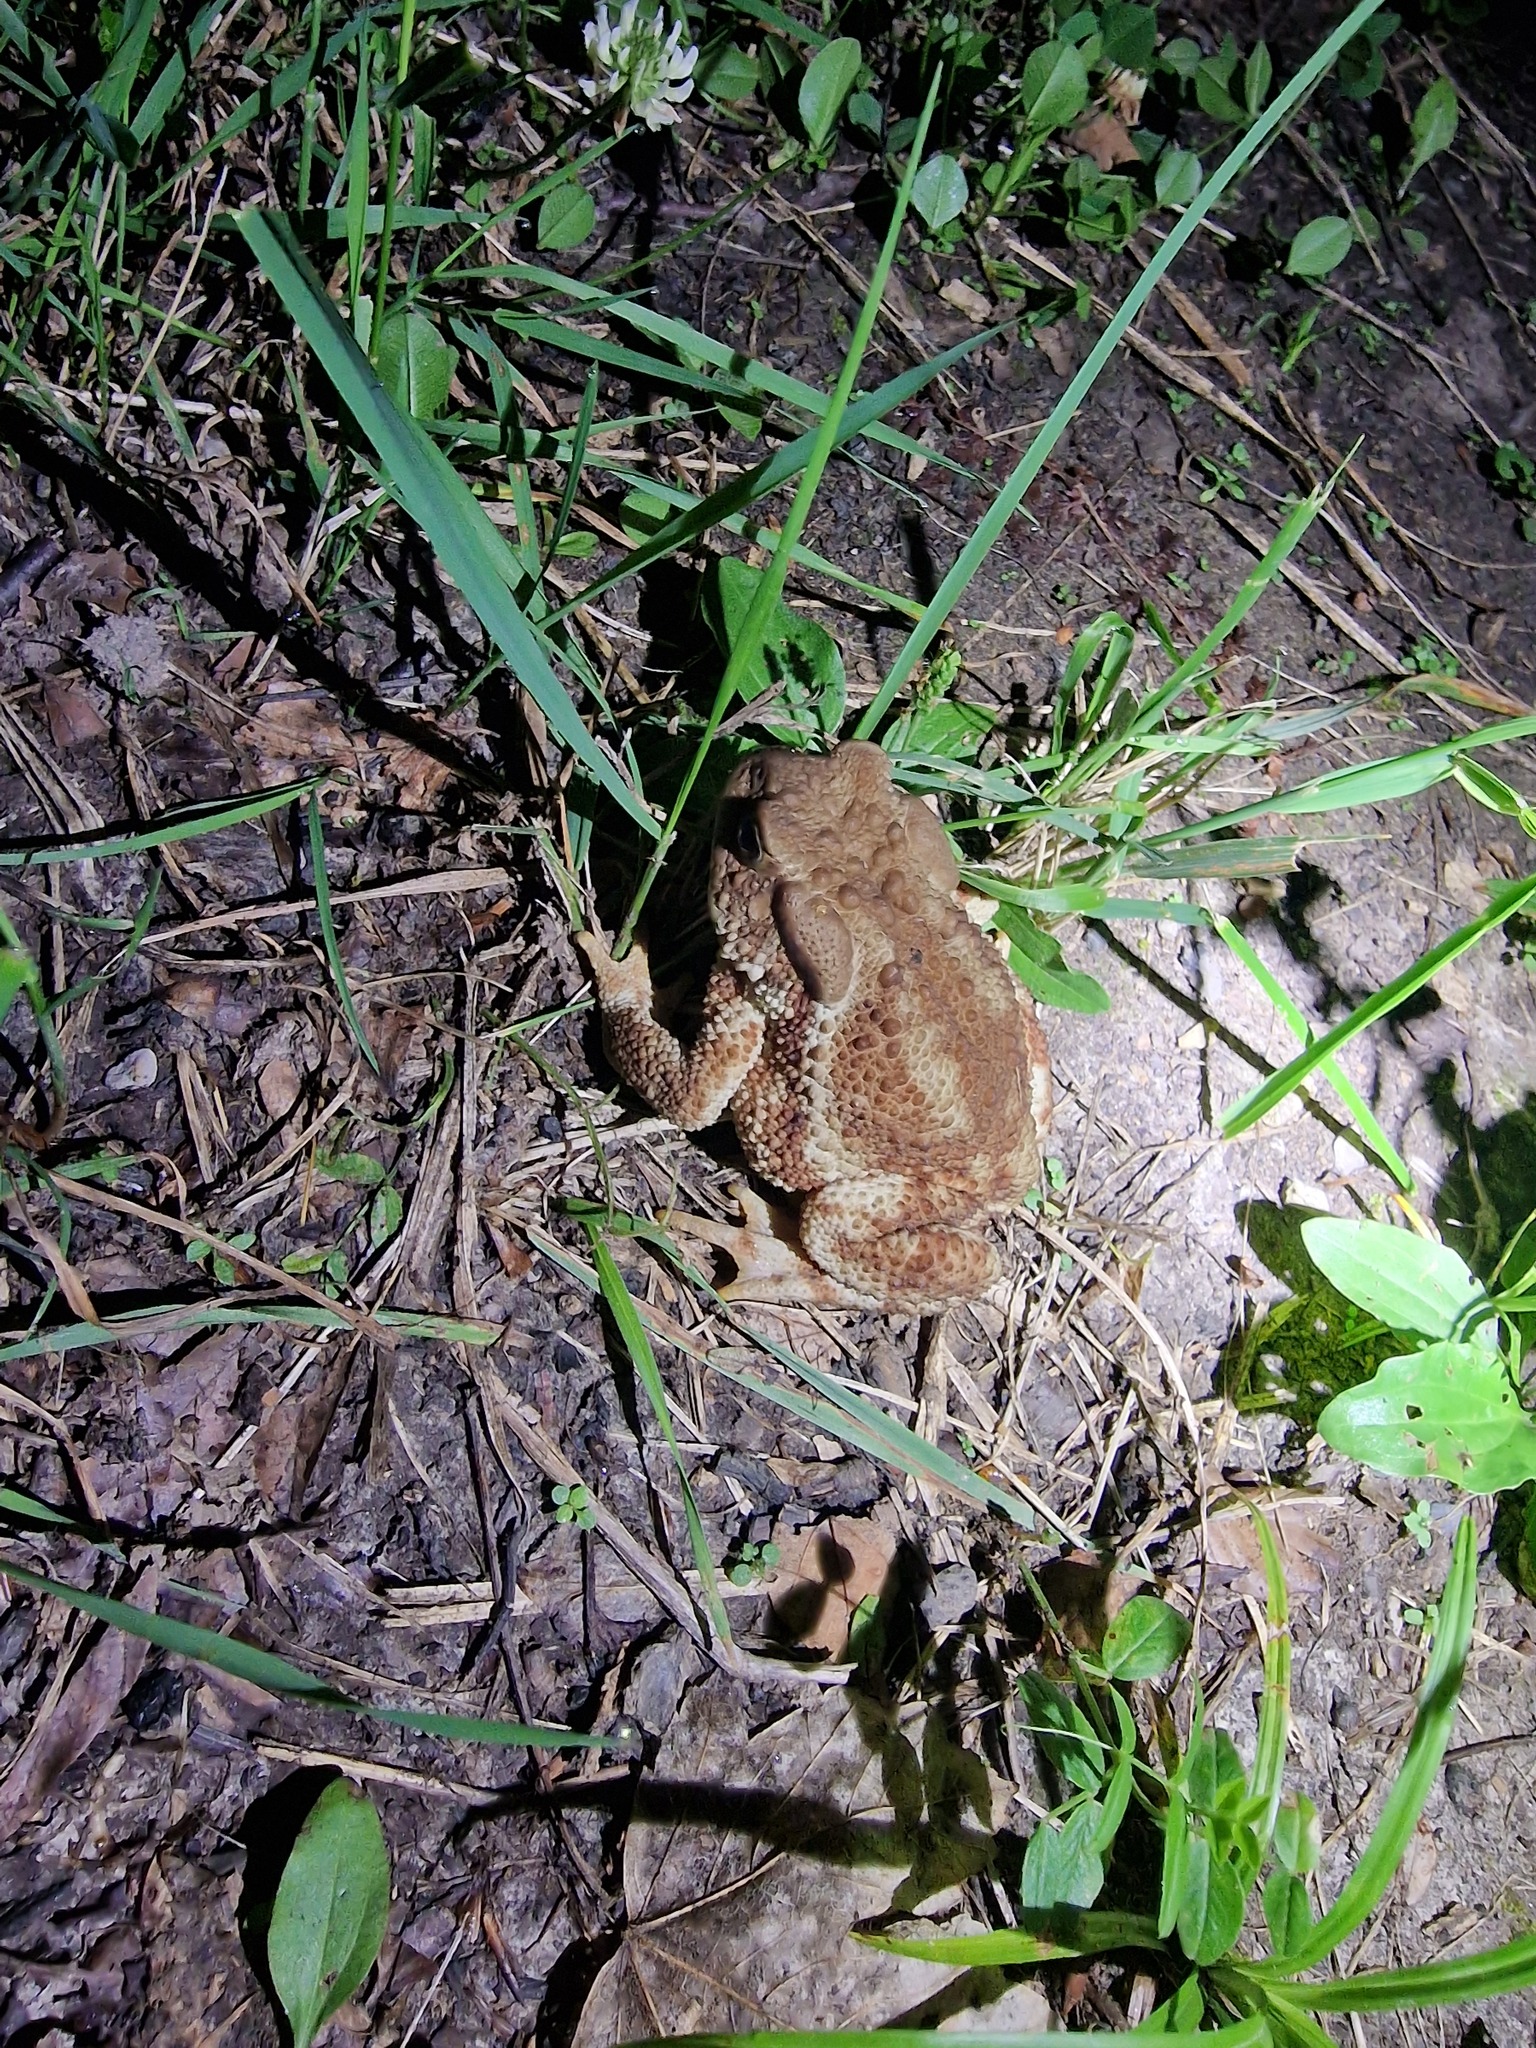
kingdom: Animalia
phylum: Chordata
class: Amphibia
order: Anura
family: Bufonidae
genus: Bufo
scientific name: Bufo bufo
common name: Common toad
